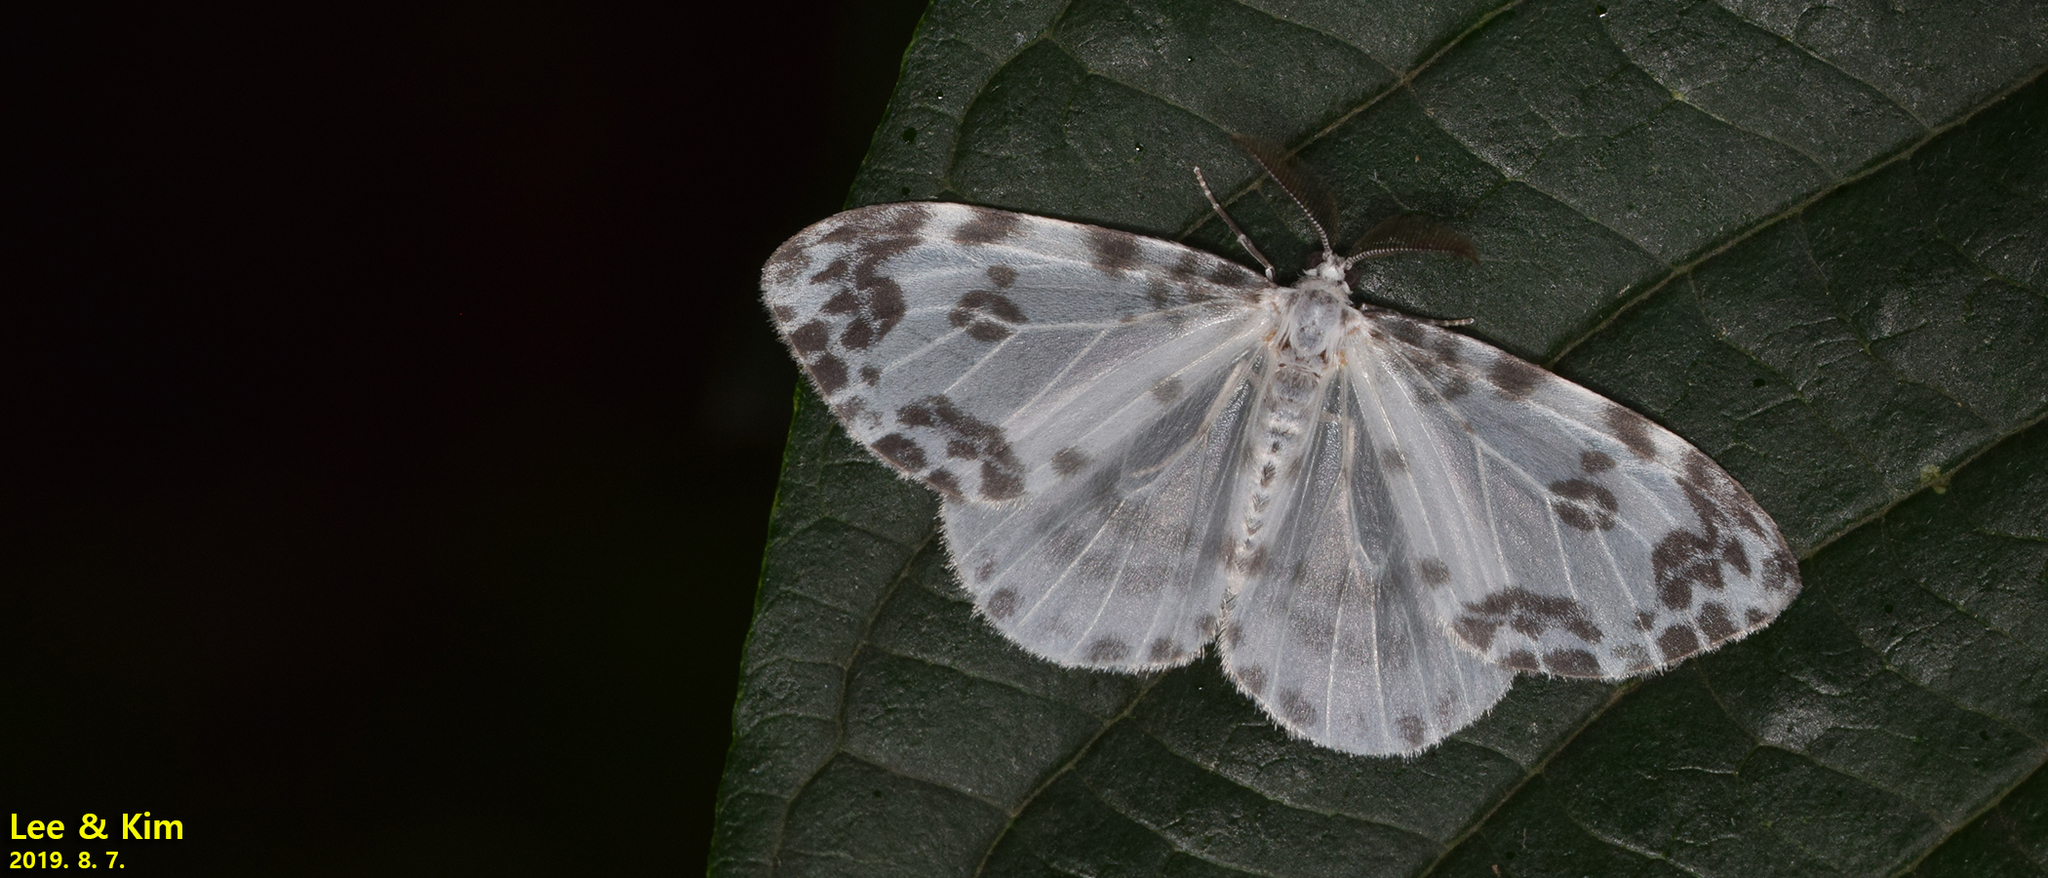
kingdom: Animalia
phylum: Arthropoda
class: Insecta
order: Lepidoptera
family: Drepanidae
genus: Deroca
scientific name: Deroca inconclusa
